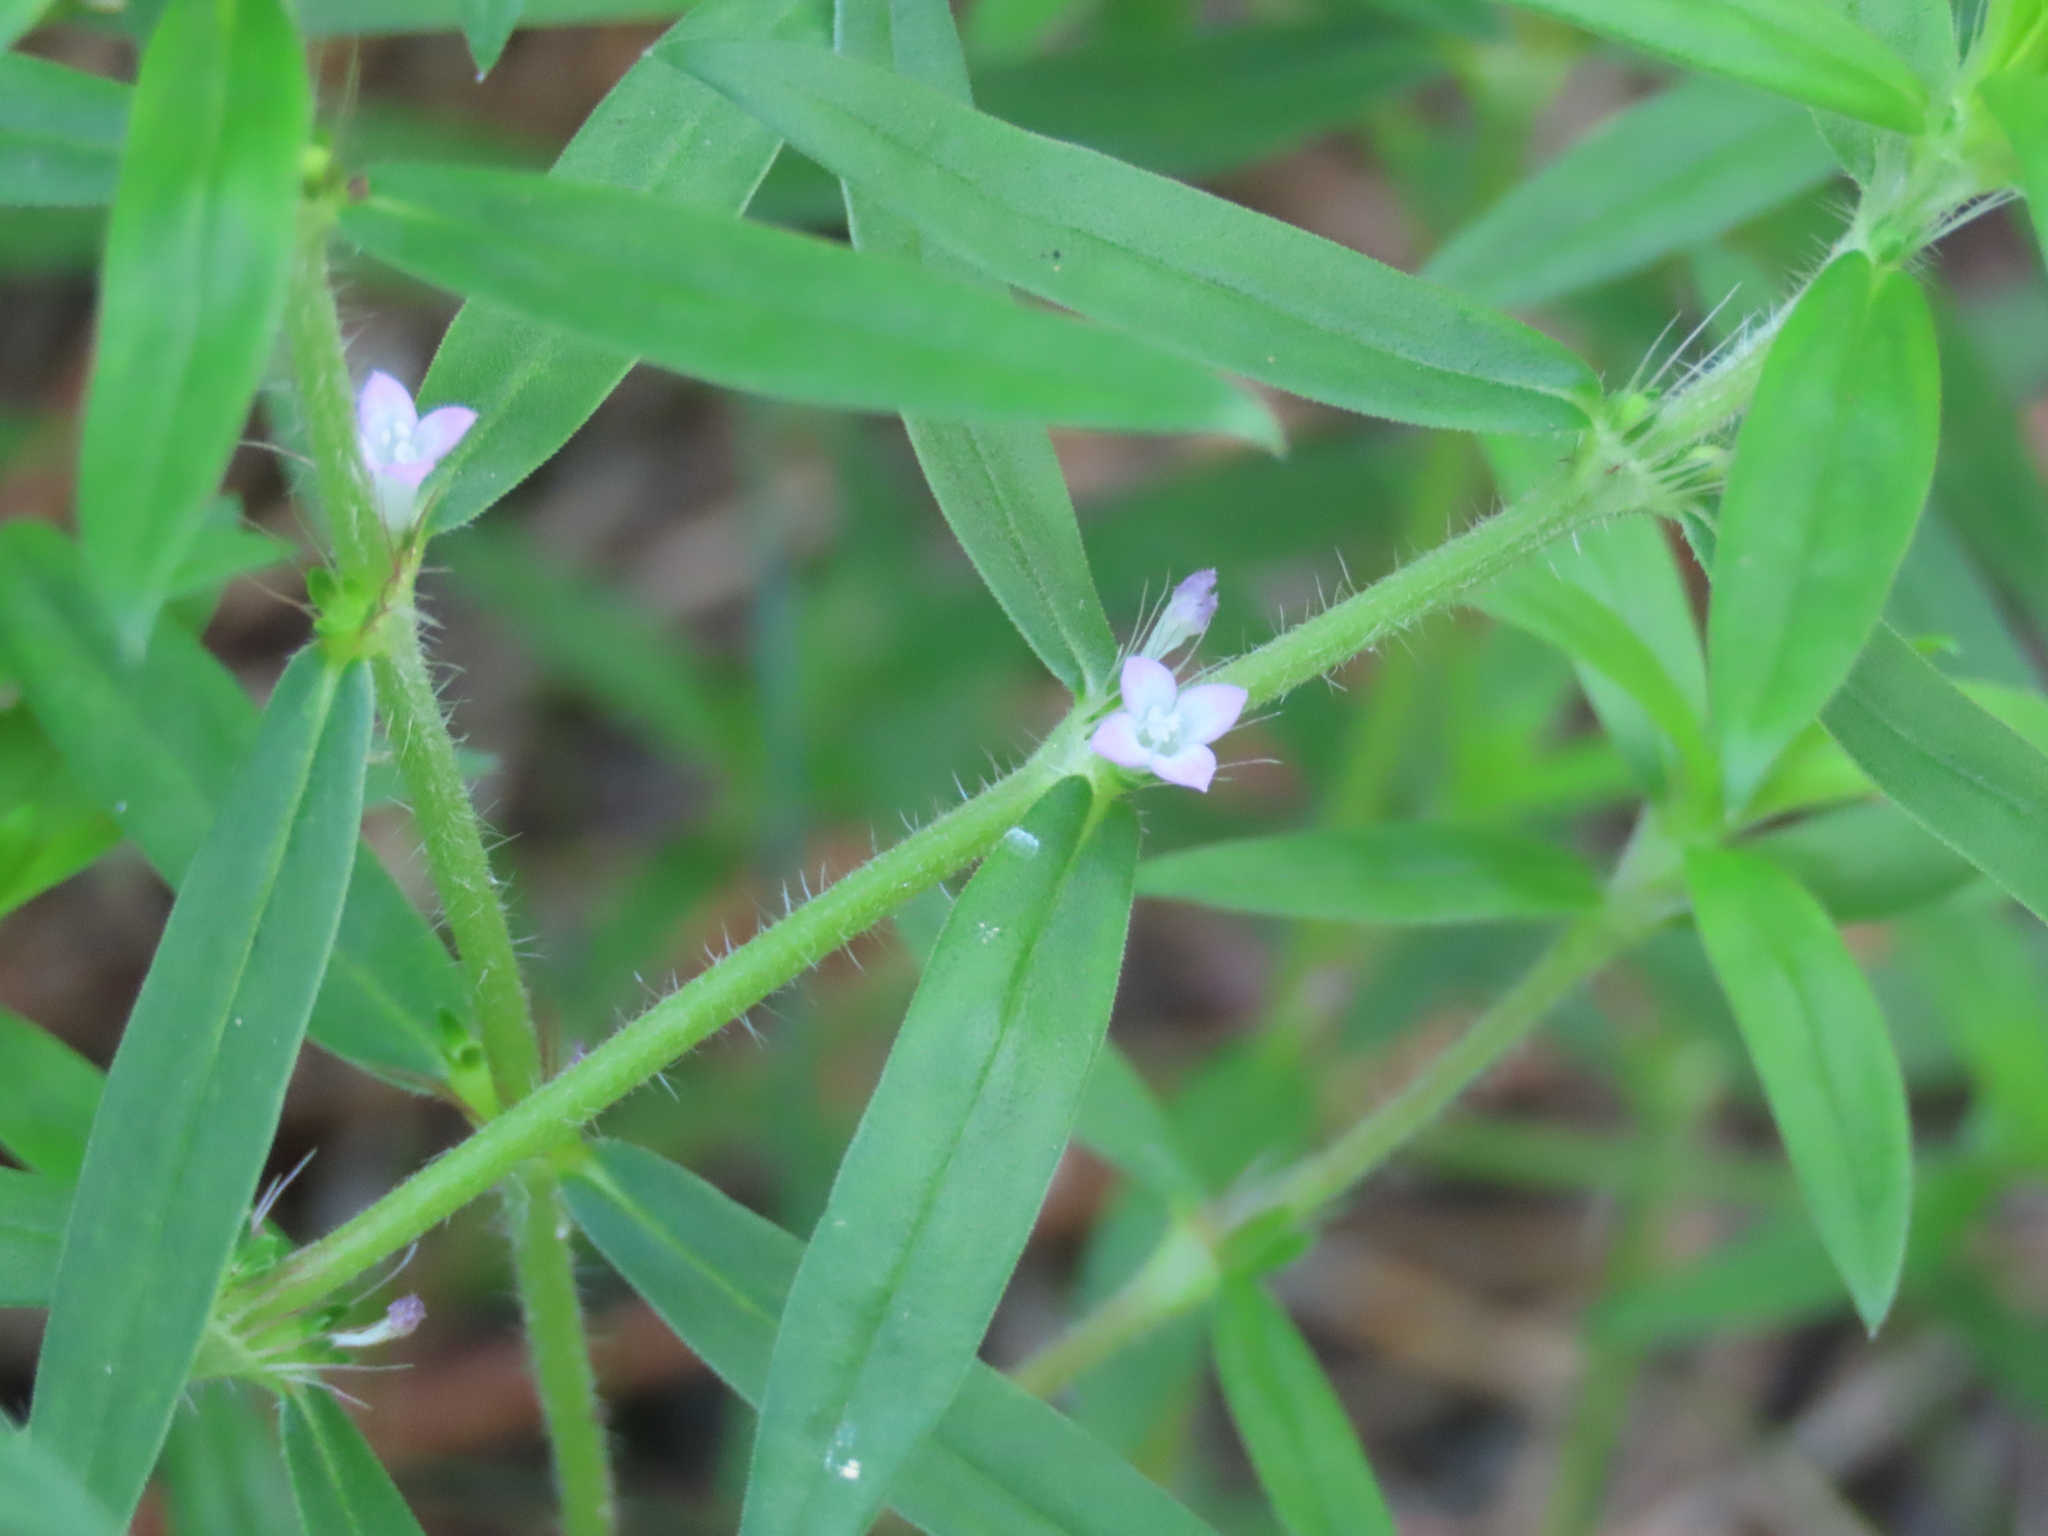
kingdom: Plantae
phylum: Tracheophyta
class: Magnoliopsida
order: Gentianales
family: Rubiaceae
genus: Hexasepalum
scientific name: Hexasepalum teres
